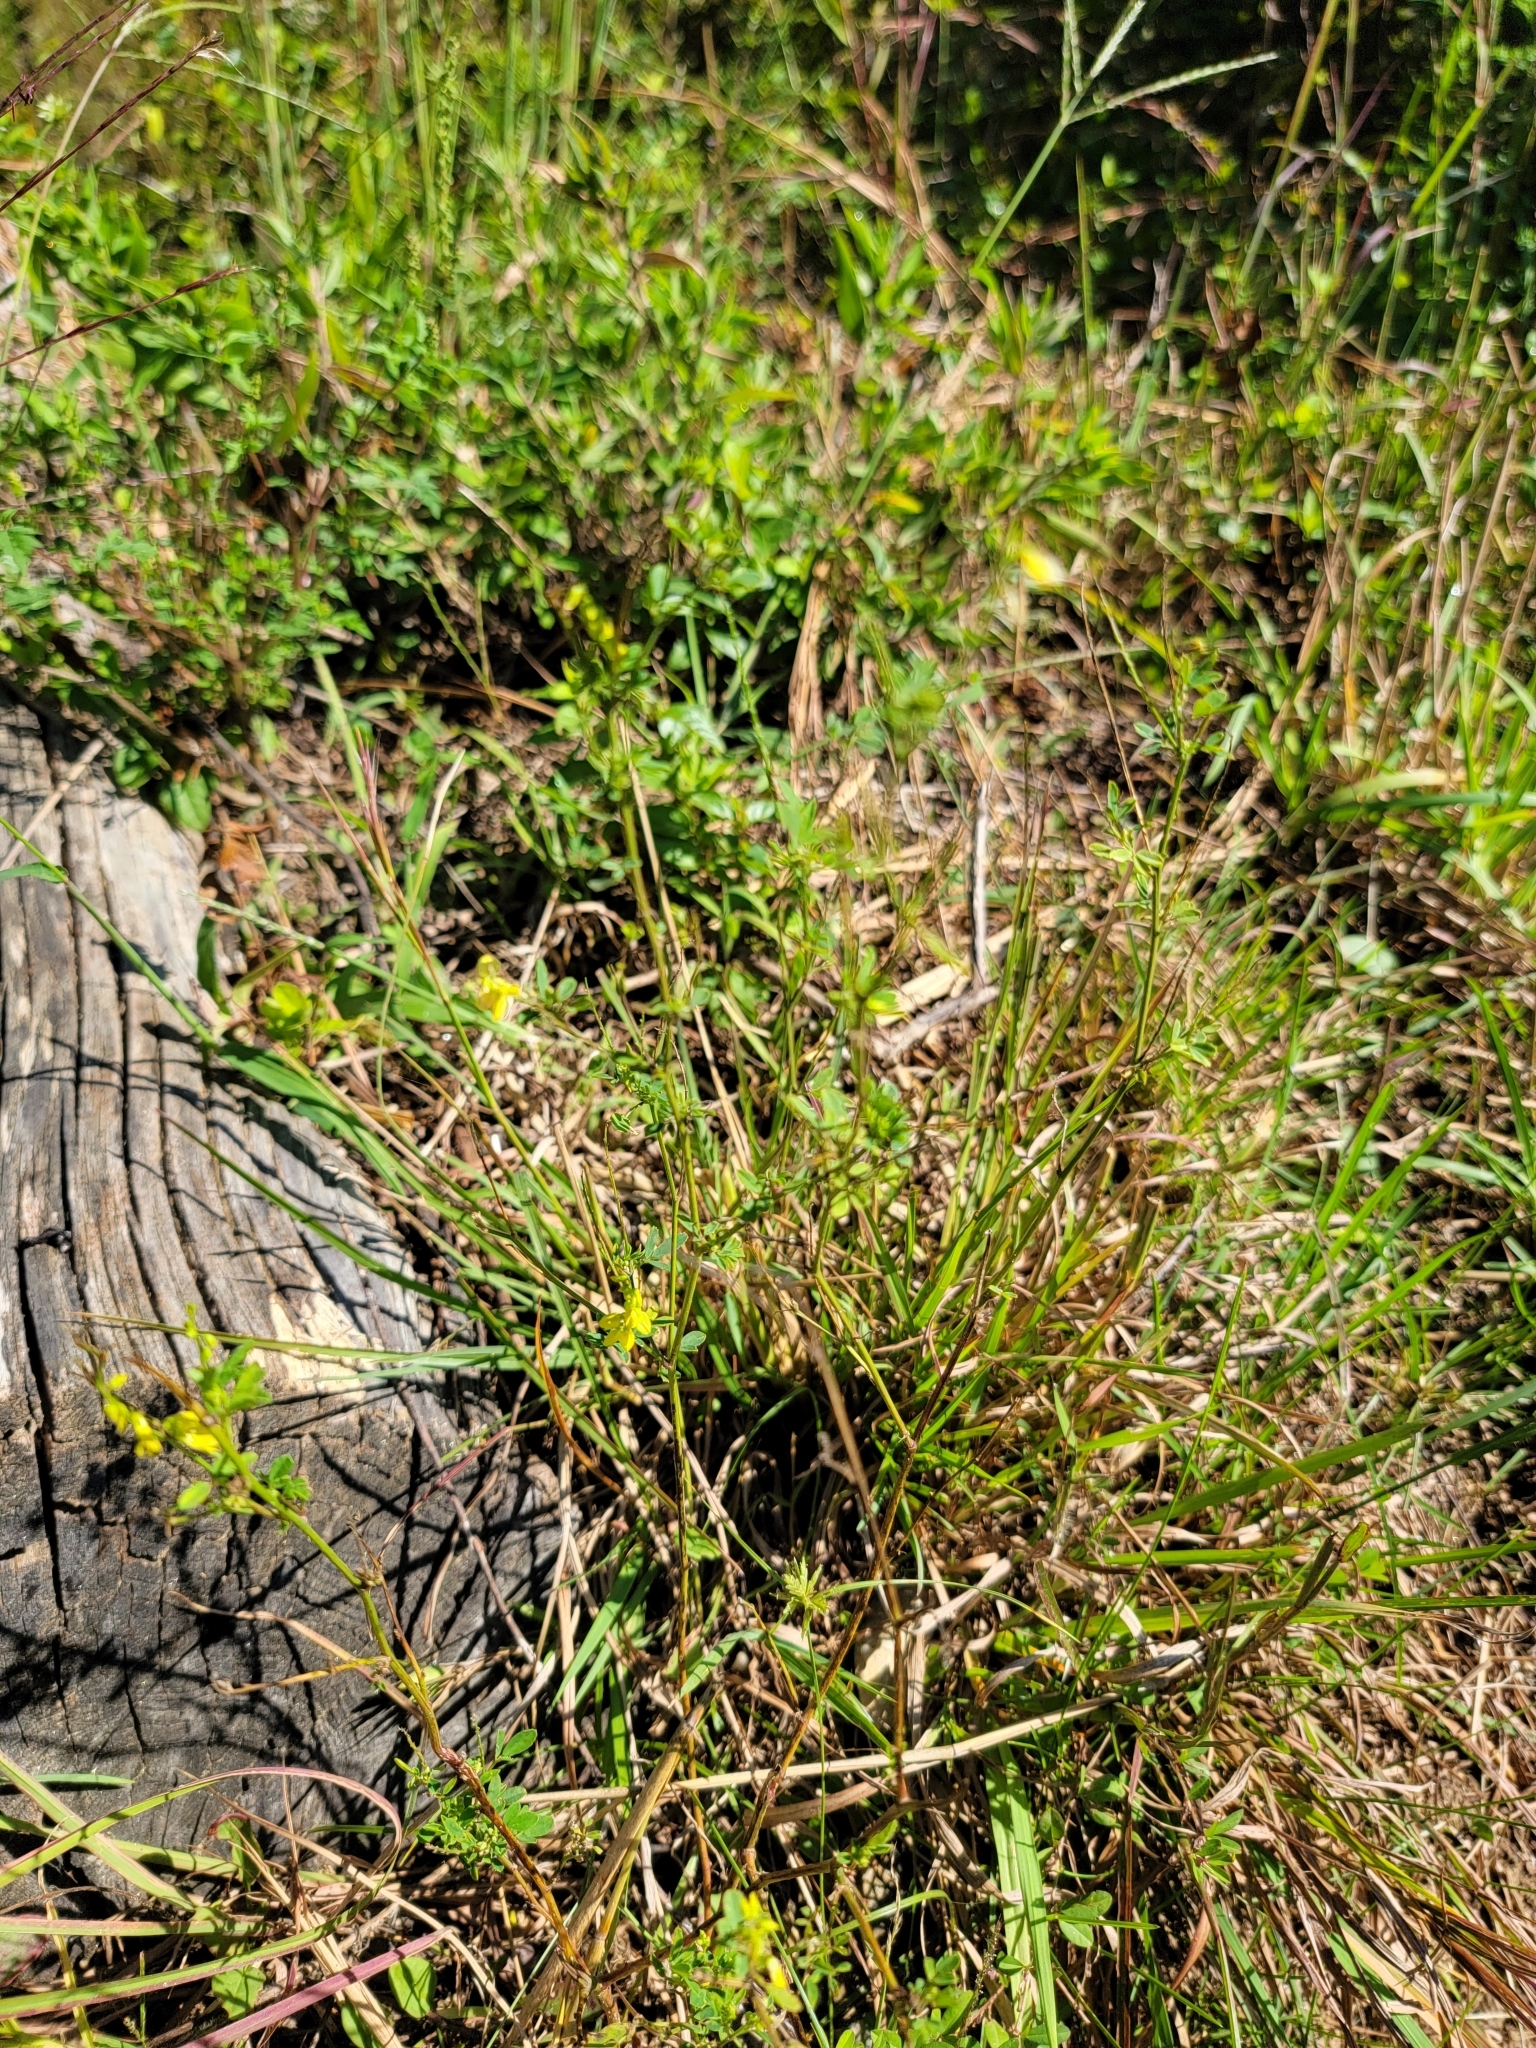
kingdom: Plantae
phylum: Tracheophyta
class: Magnoliopsida
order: Fabales
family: Fabaceae
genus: Melilotus
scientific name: Melilotus officinalis
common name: Sweetclover
